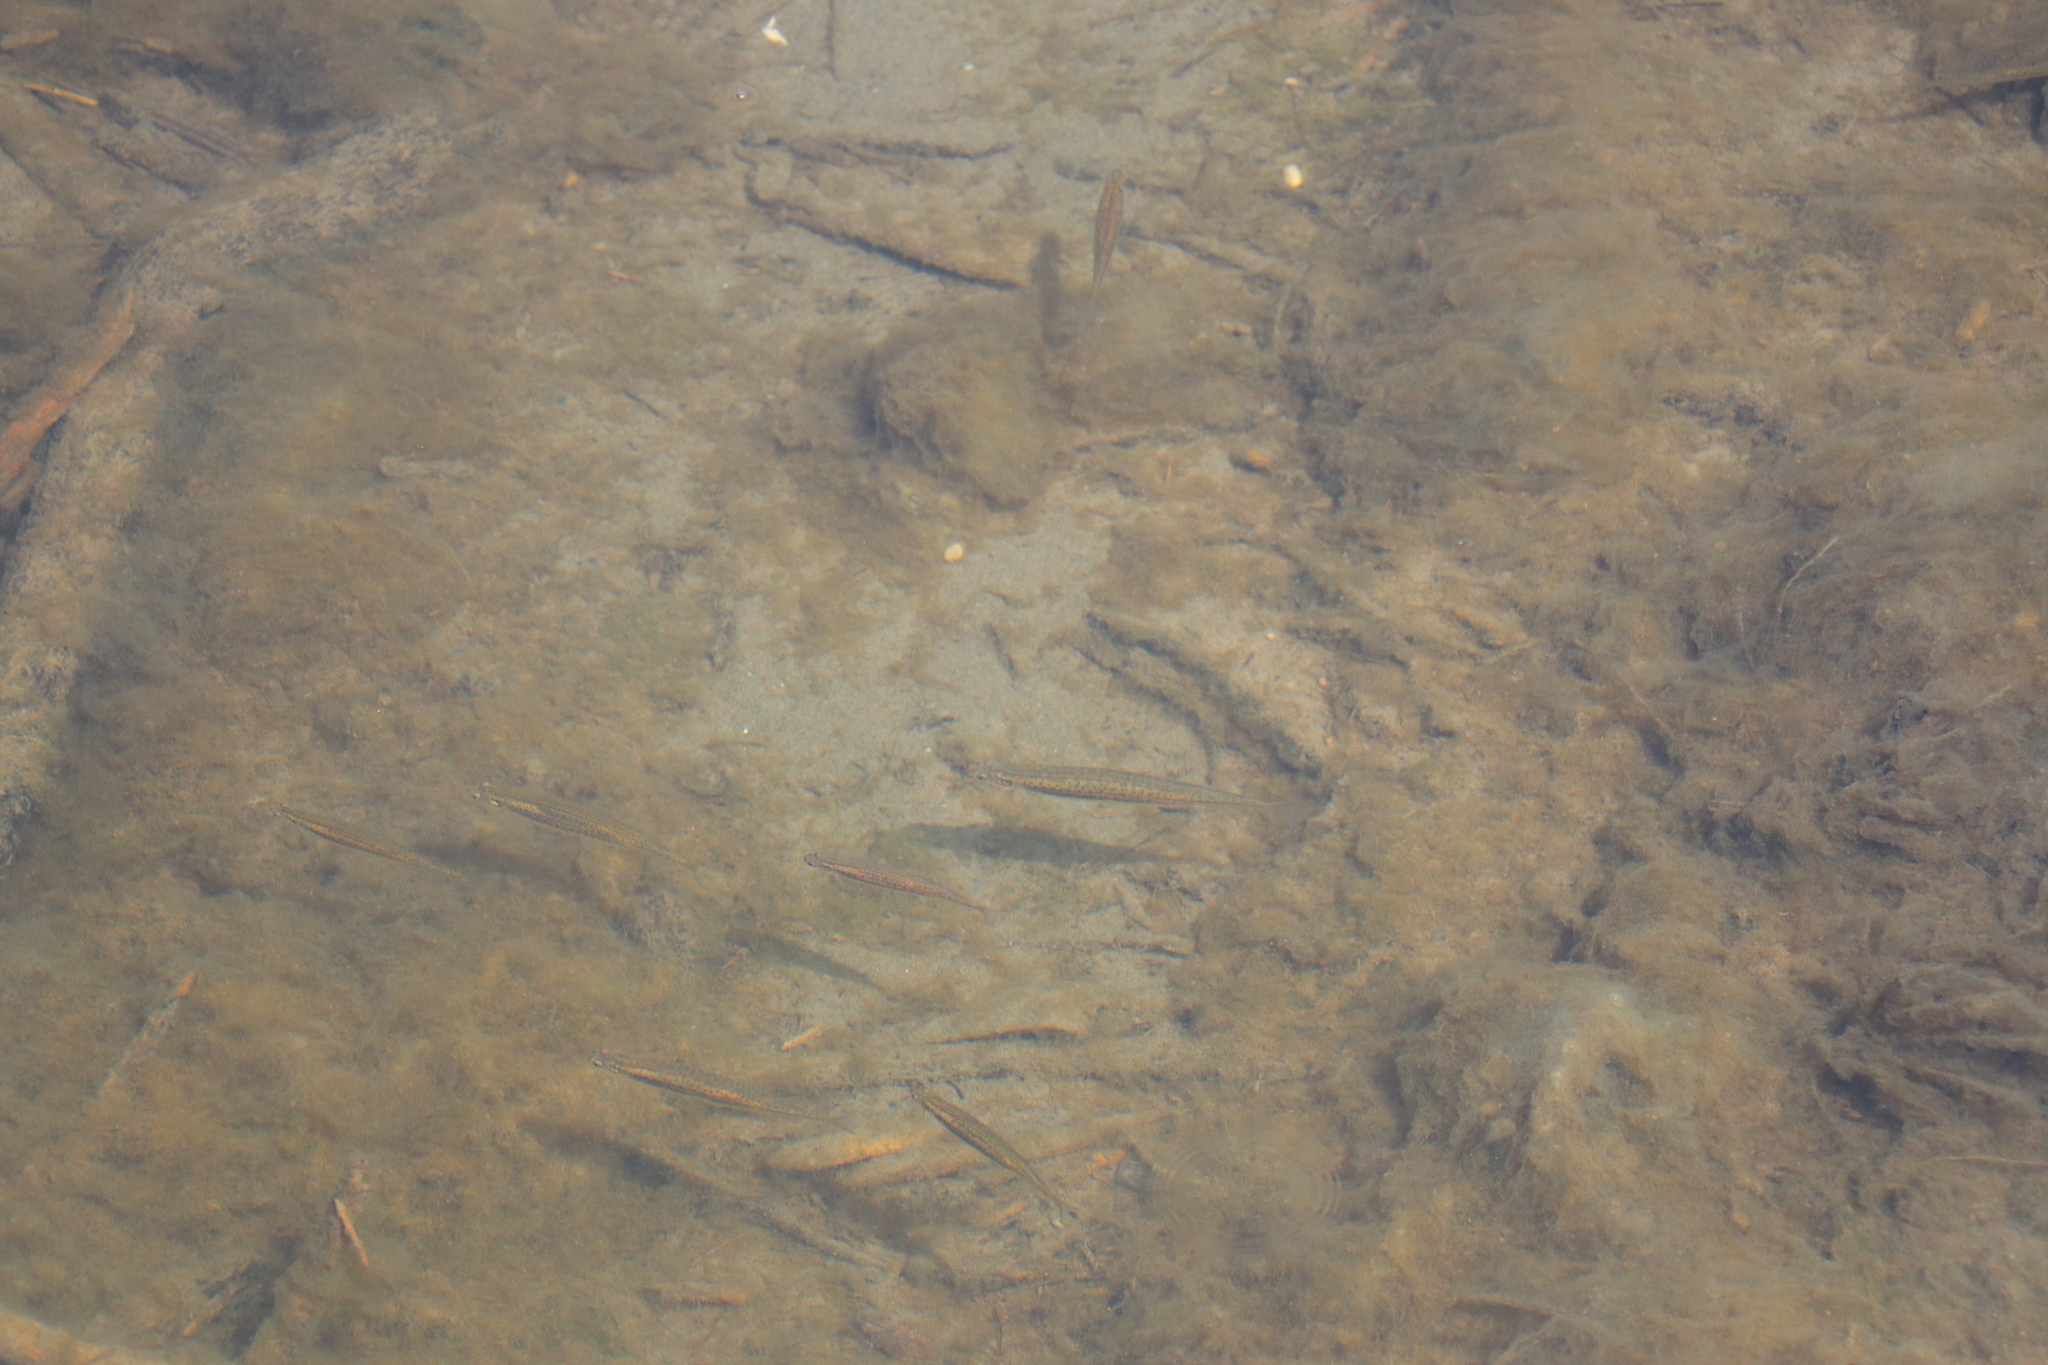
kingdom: Animalia
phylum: Chordata
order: Osmeriformes
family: Galaxiidae
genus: Galaxias
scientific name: Galaxias maculatus
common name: Common galaxias
